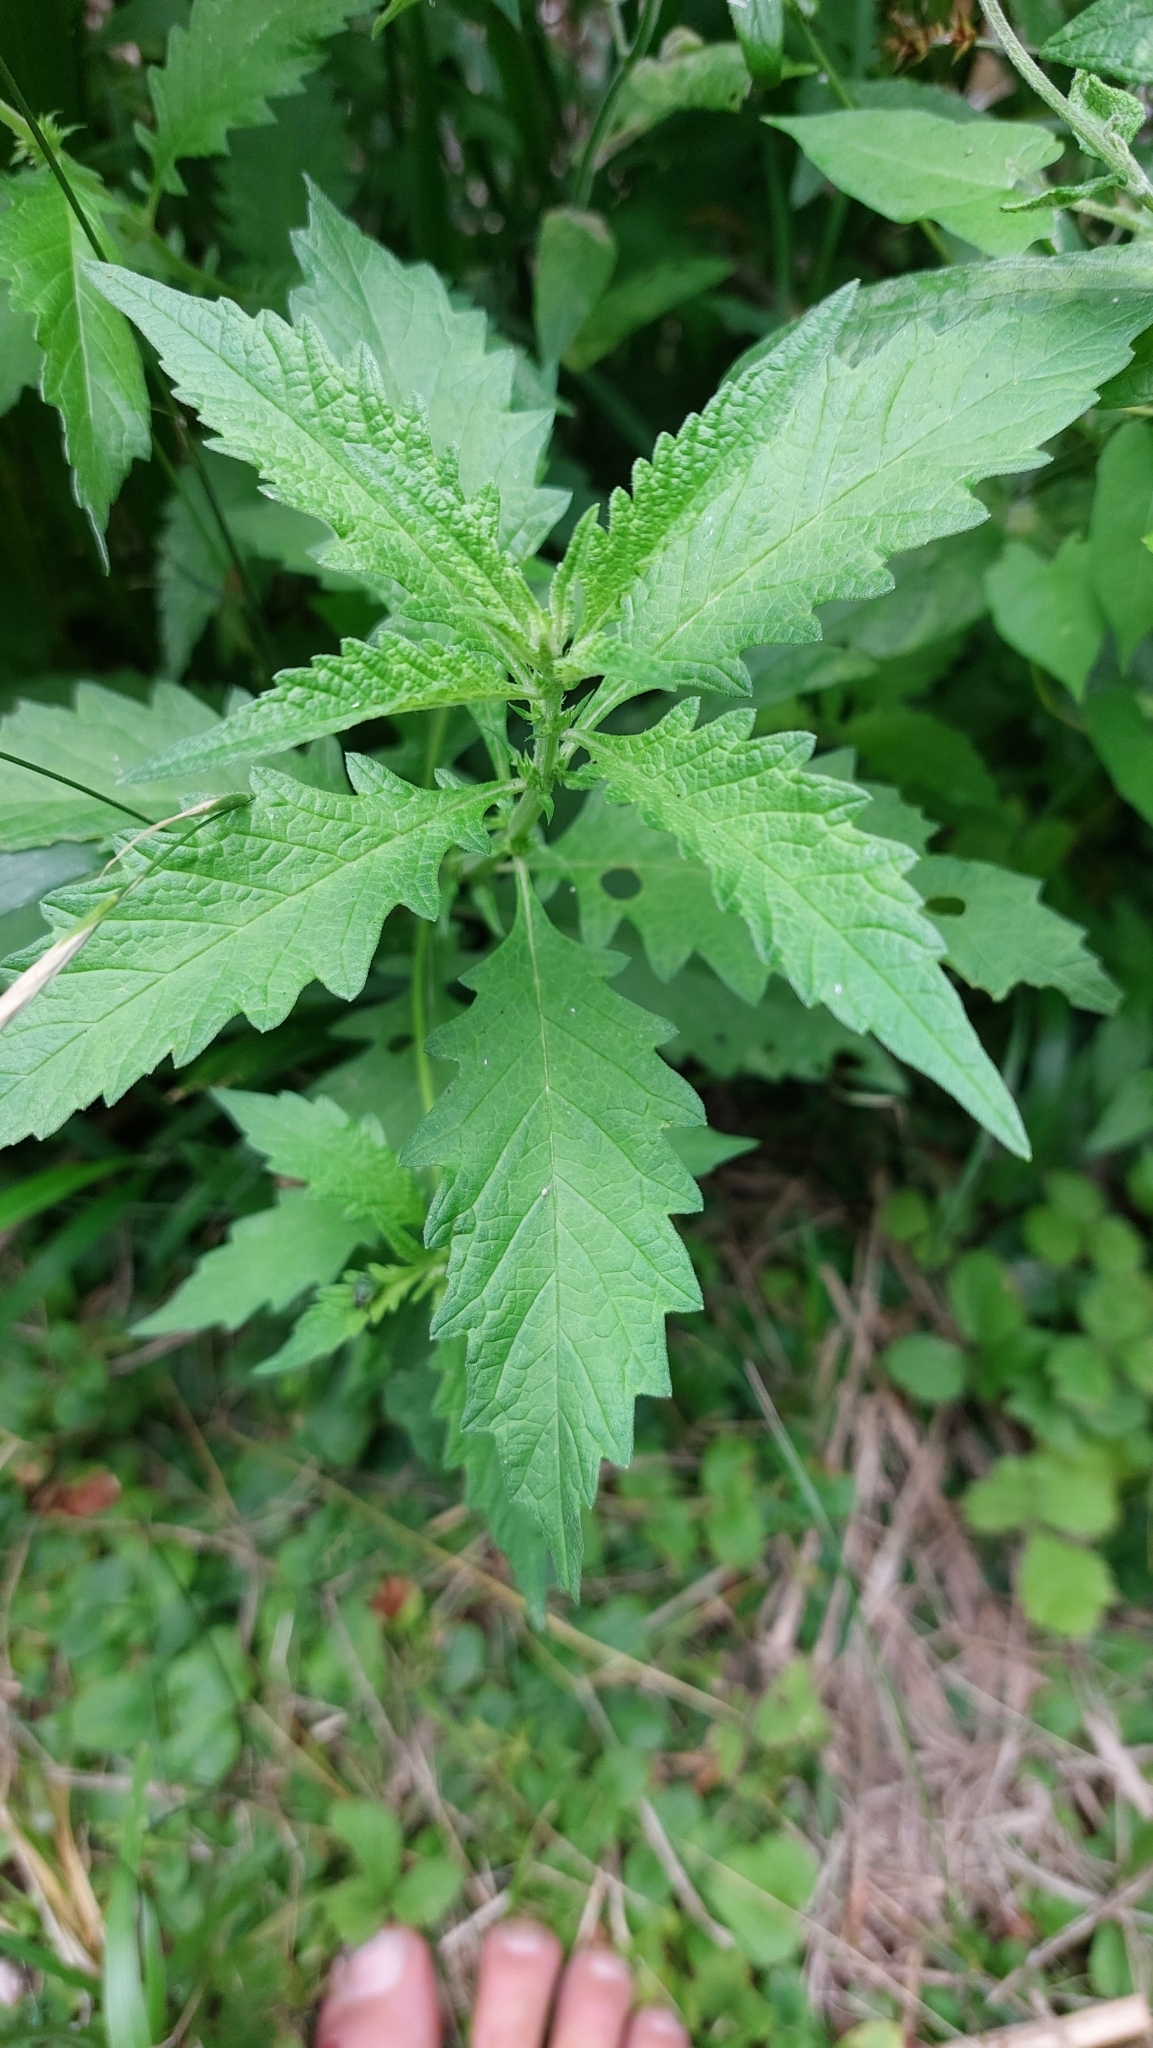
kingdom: Plantae
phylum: Tracheophyta
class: Magnoliopsida
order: Lamiales
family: Lamiaceae
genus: Lycopus
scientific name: Lycopus europaeus
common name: European bugleweed
